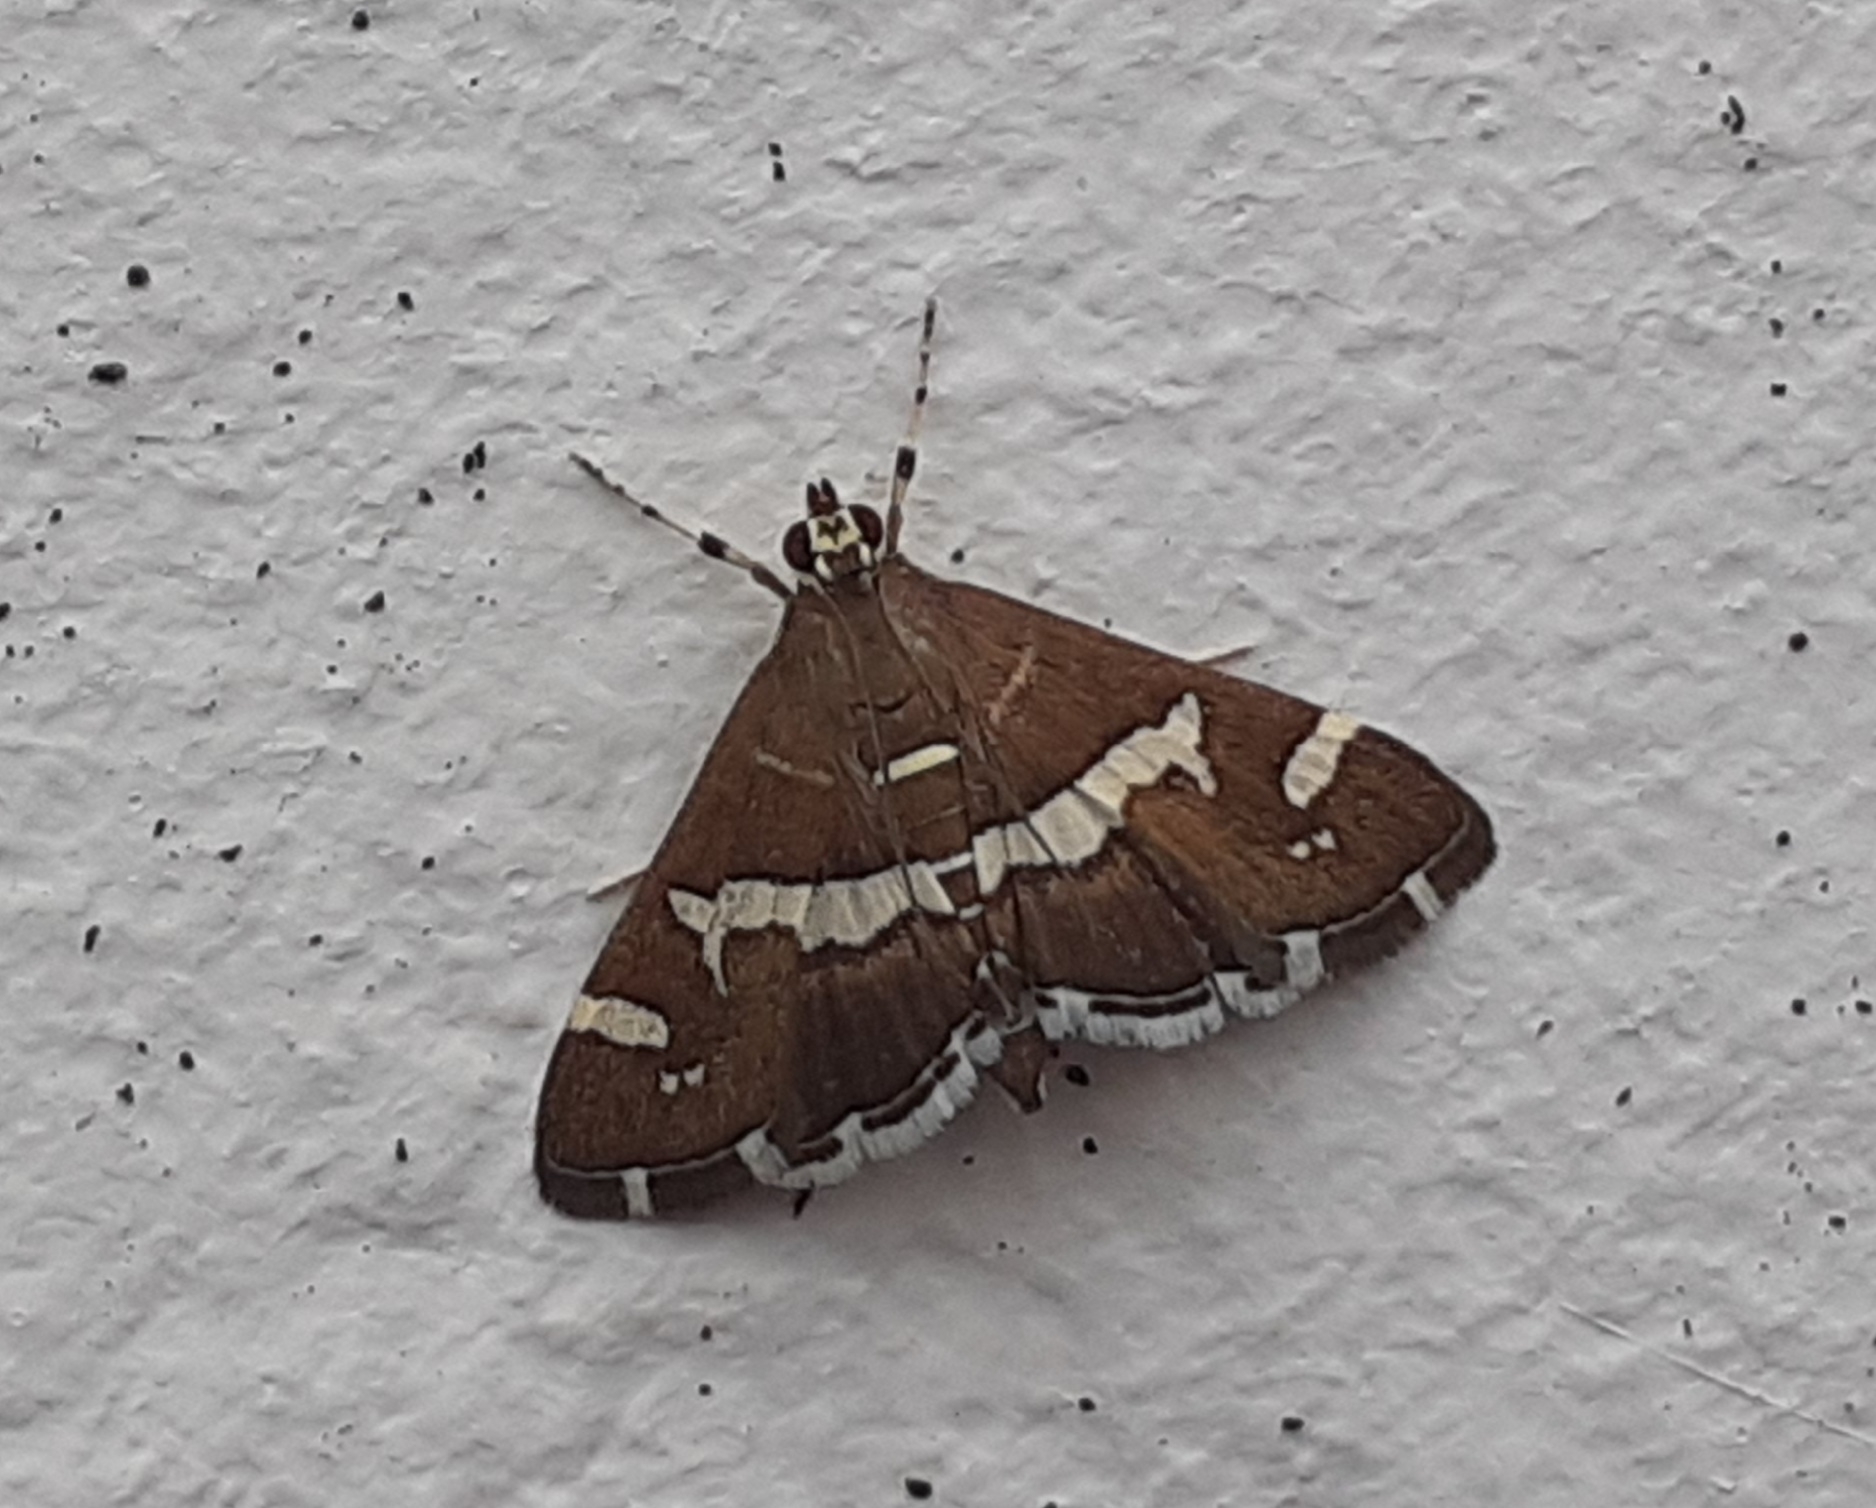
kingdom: Animalia
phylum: Arthropoda
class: Insecta
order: Lepidoptera
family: Crambidae
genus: Spoladea
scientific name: Spoladea recurvalis
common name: Beet webworm moth
